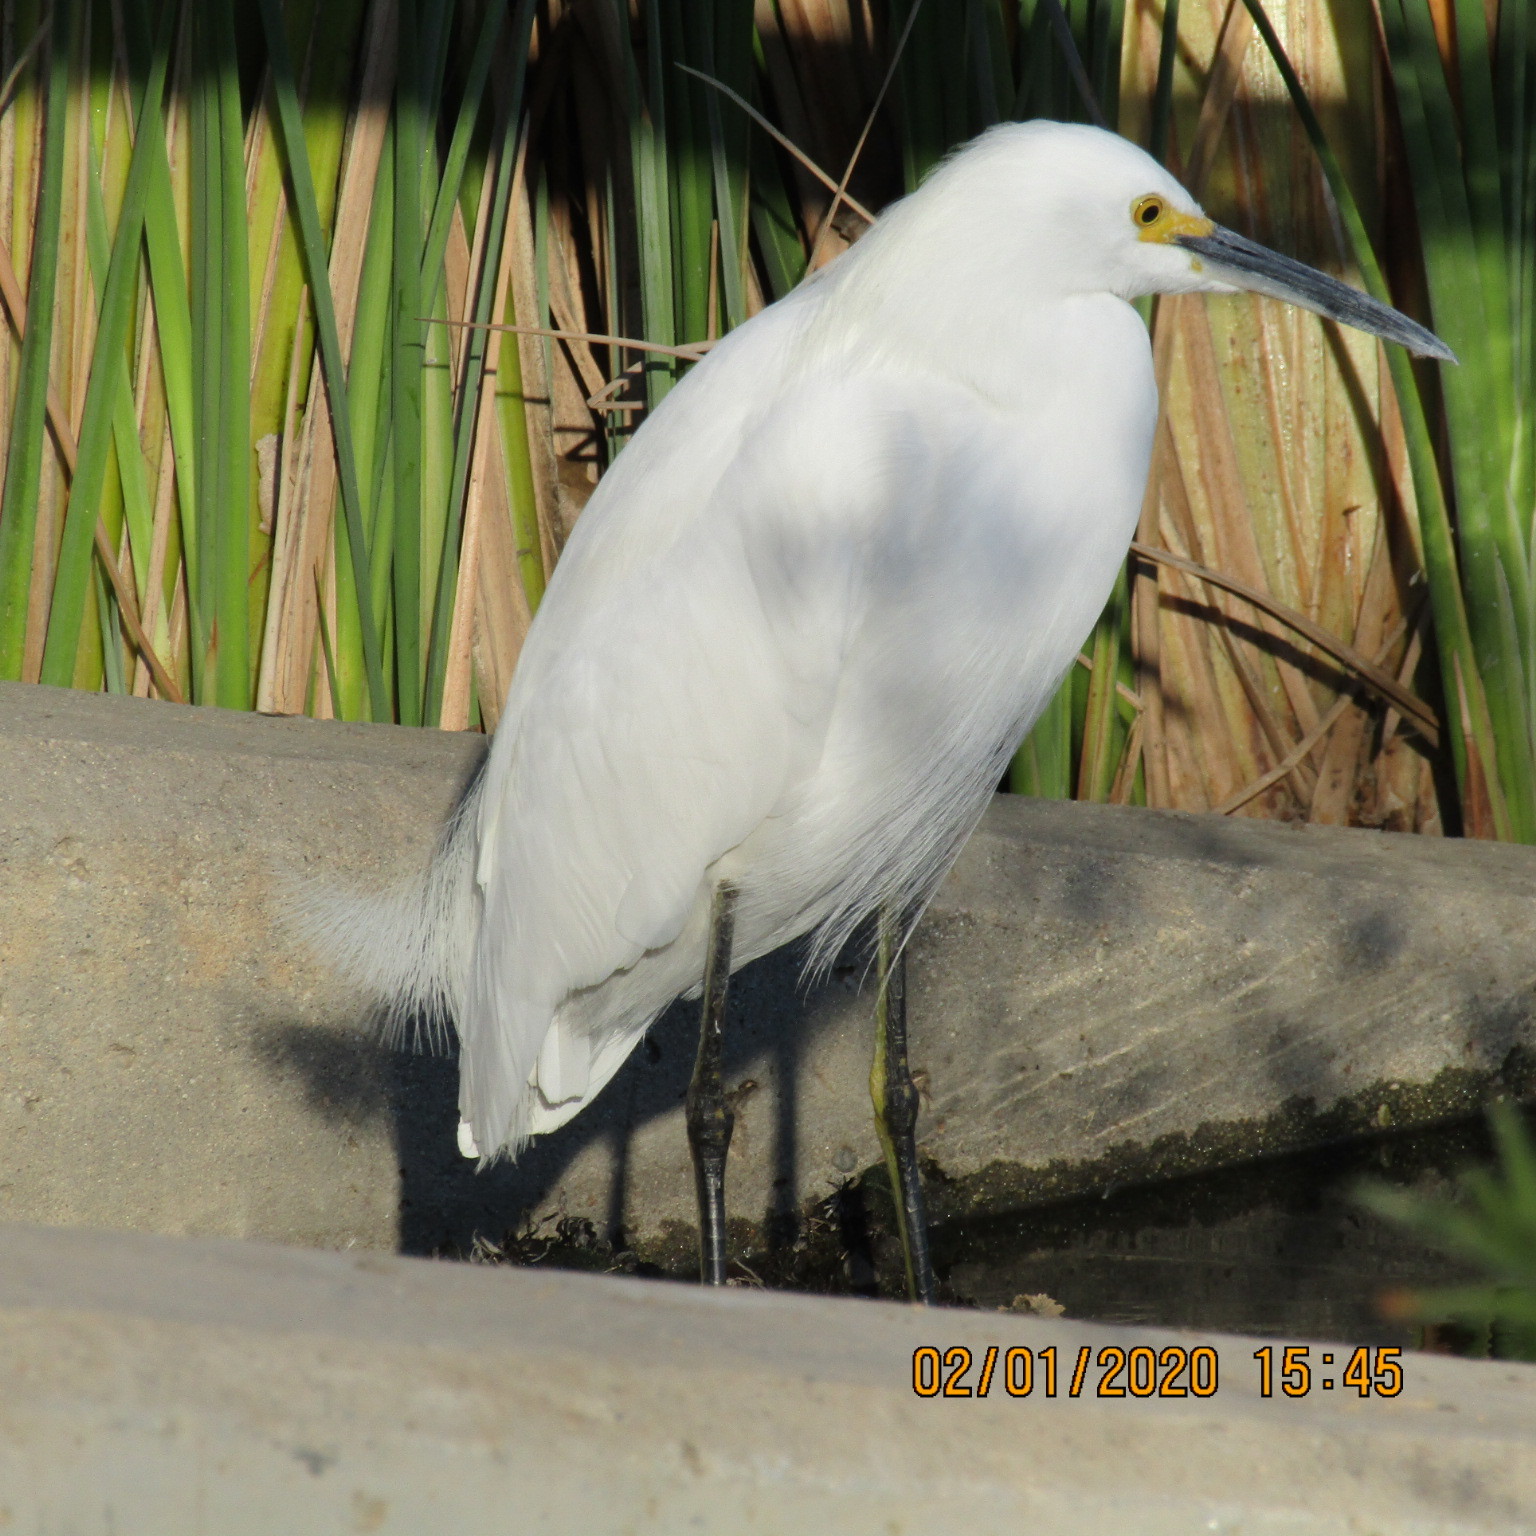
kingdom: Animalia
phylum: Chordata
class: Aves
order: Pelecaniformes
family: Ardeidae
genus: Egretta
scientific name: Egretta thula
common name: Snowy egret
